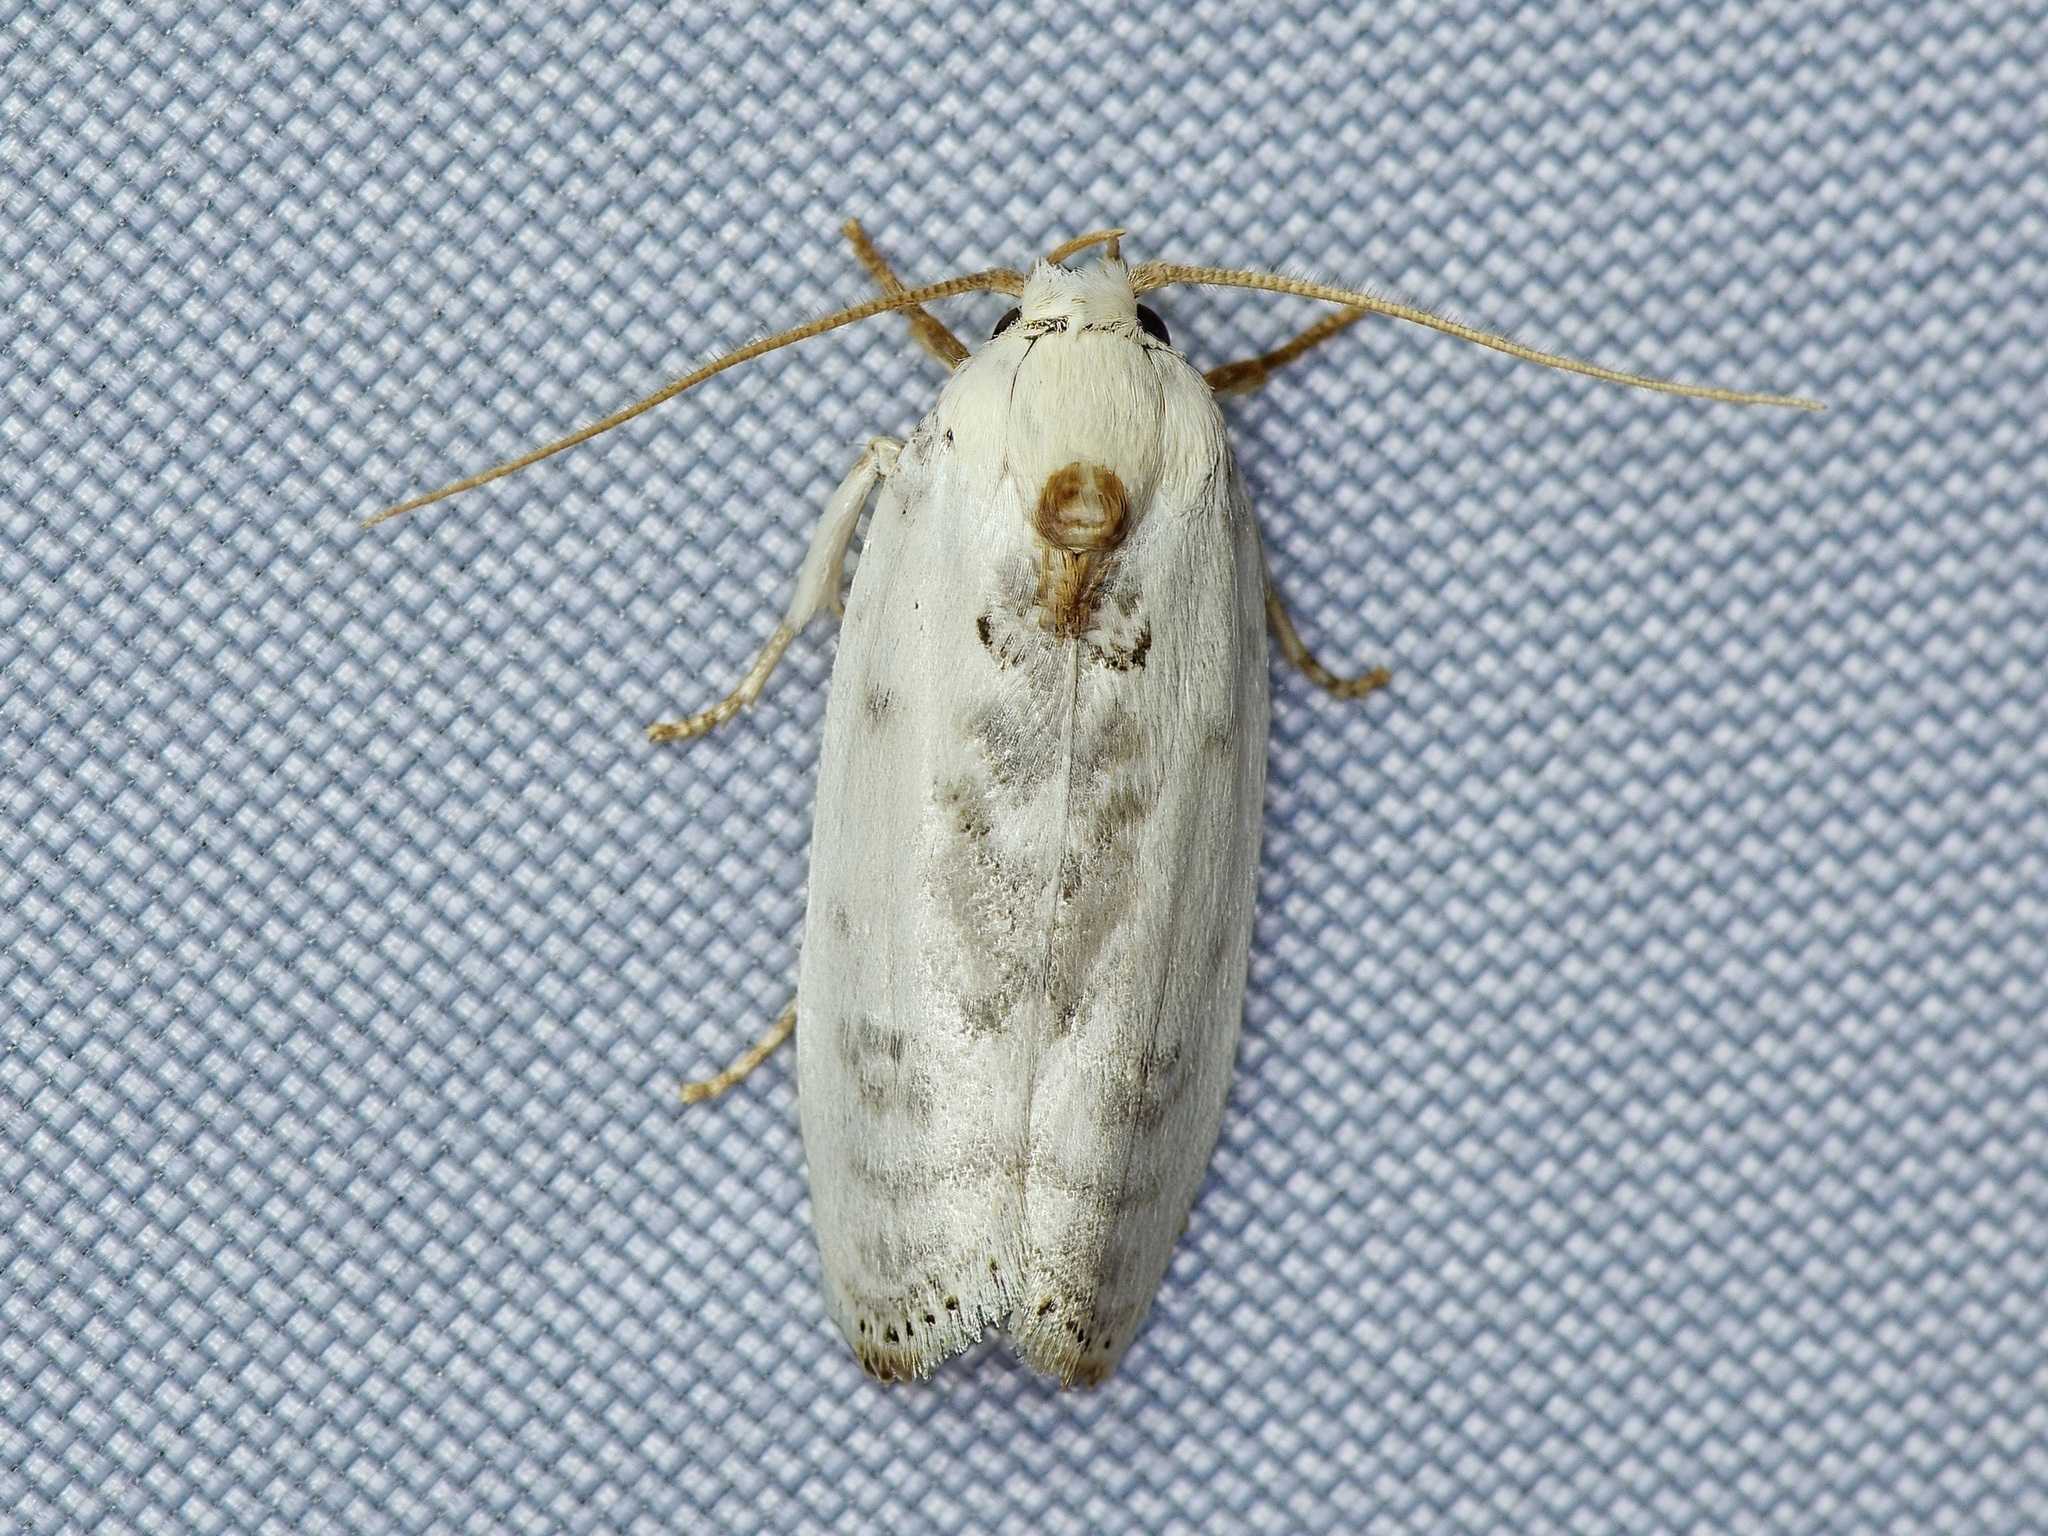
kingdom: Animalia
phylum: Arthropoda
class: Insecta
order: Lepidoptera
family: Depressariidae
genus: Antaeotricha
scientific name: Antaeotricha leucillana
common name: Pale gray bird-dropping moth
